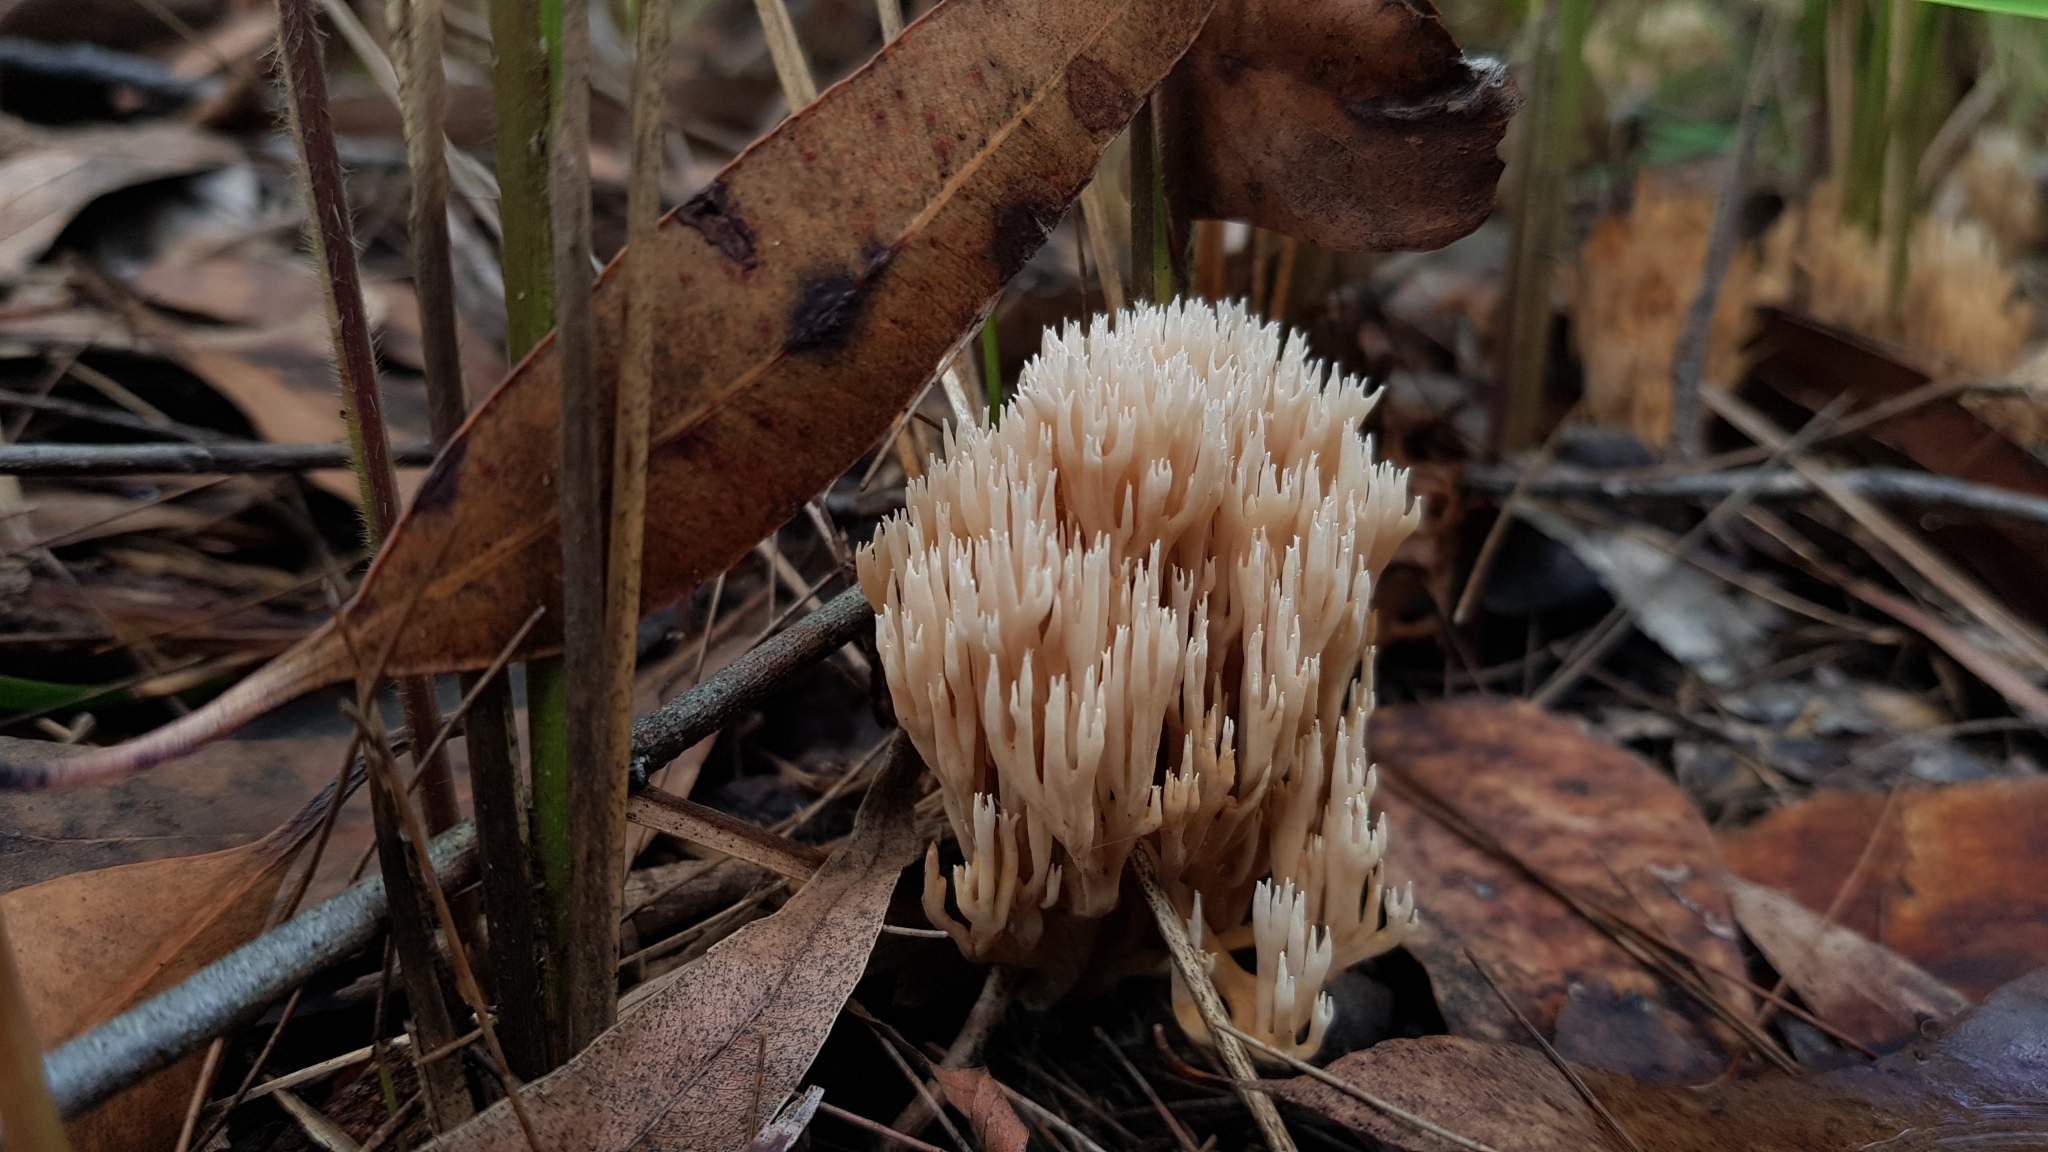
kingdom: Fungi
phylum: Basidiomycota
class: Agaricomycetes
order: Gomphales
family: Gomphaceae
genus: Ramaria
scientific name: Ramaria filicicola
